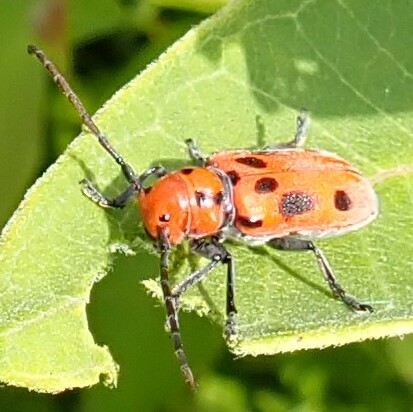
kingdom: Animalia
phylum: Arthropoda
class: Insecta
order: Coleoptera
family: Cerambycidae
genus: Tetraopes
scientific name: Tetraopes tetrophthalmus
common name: Red milkweed beetle
